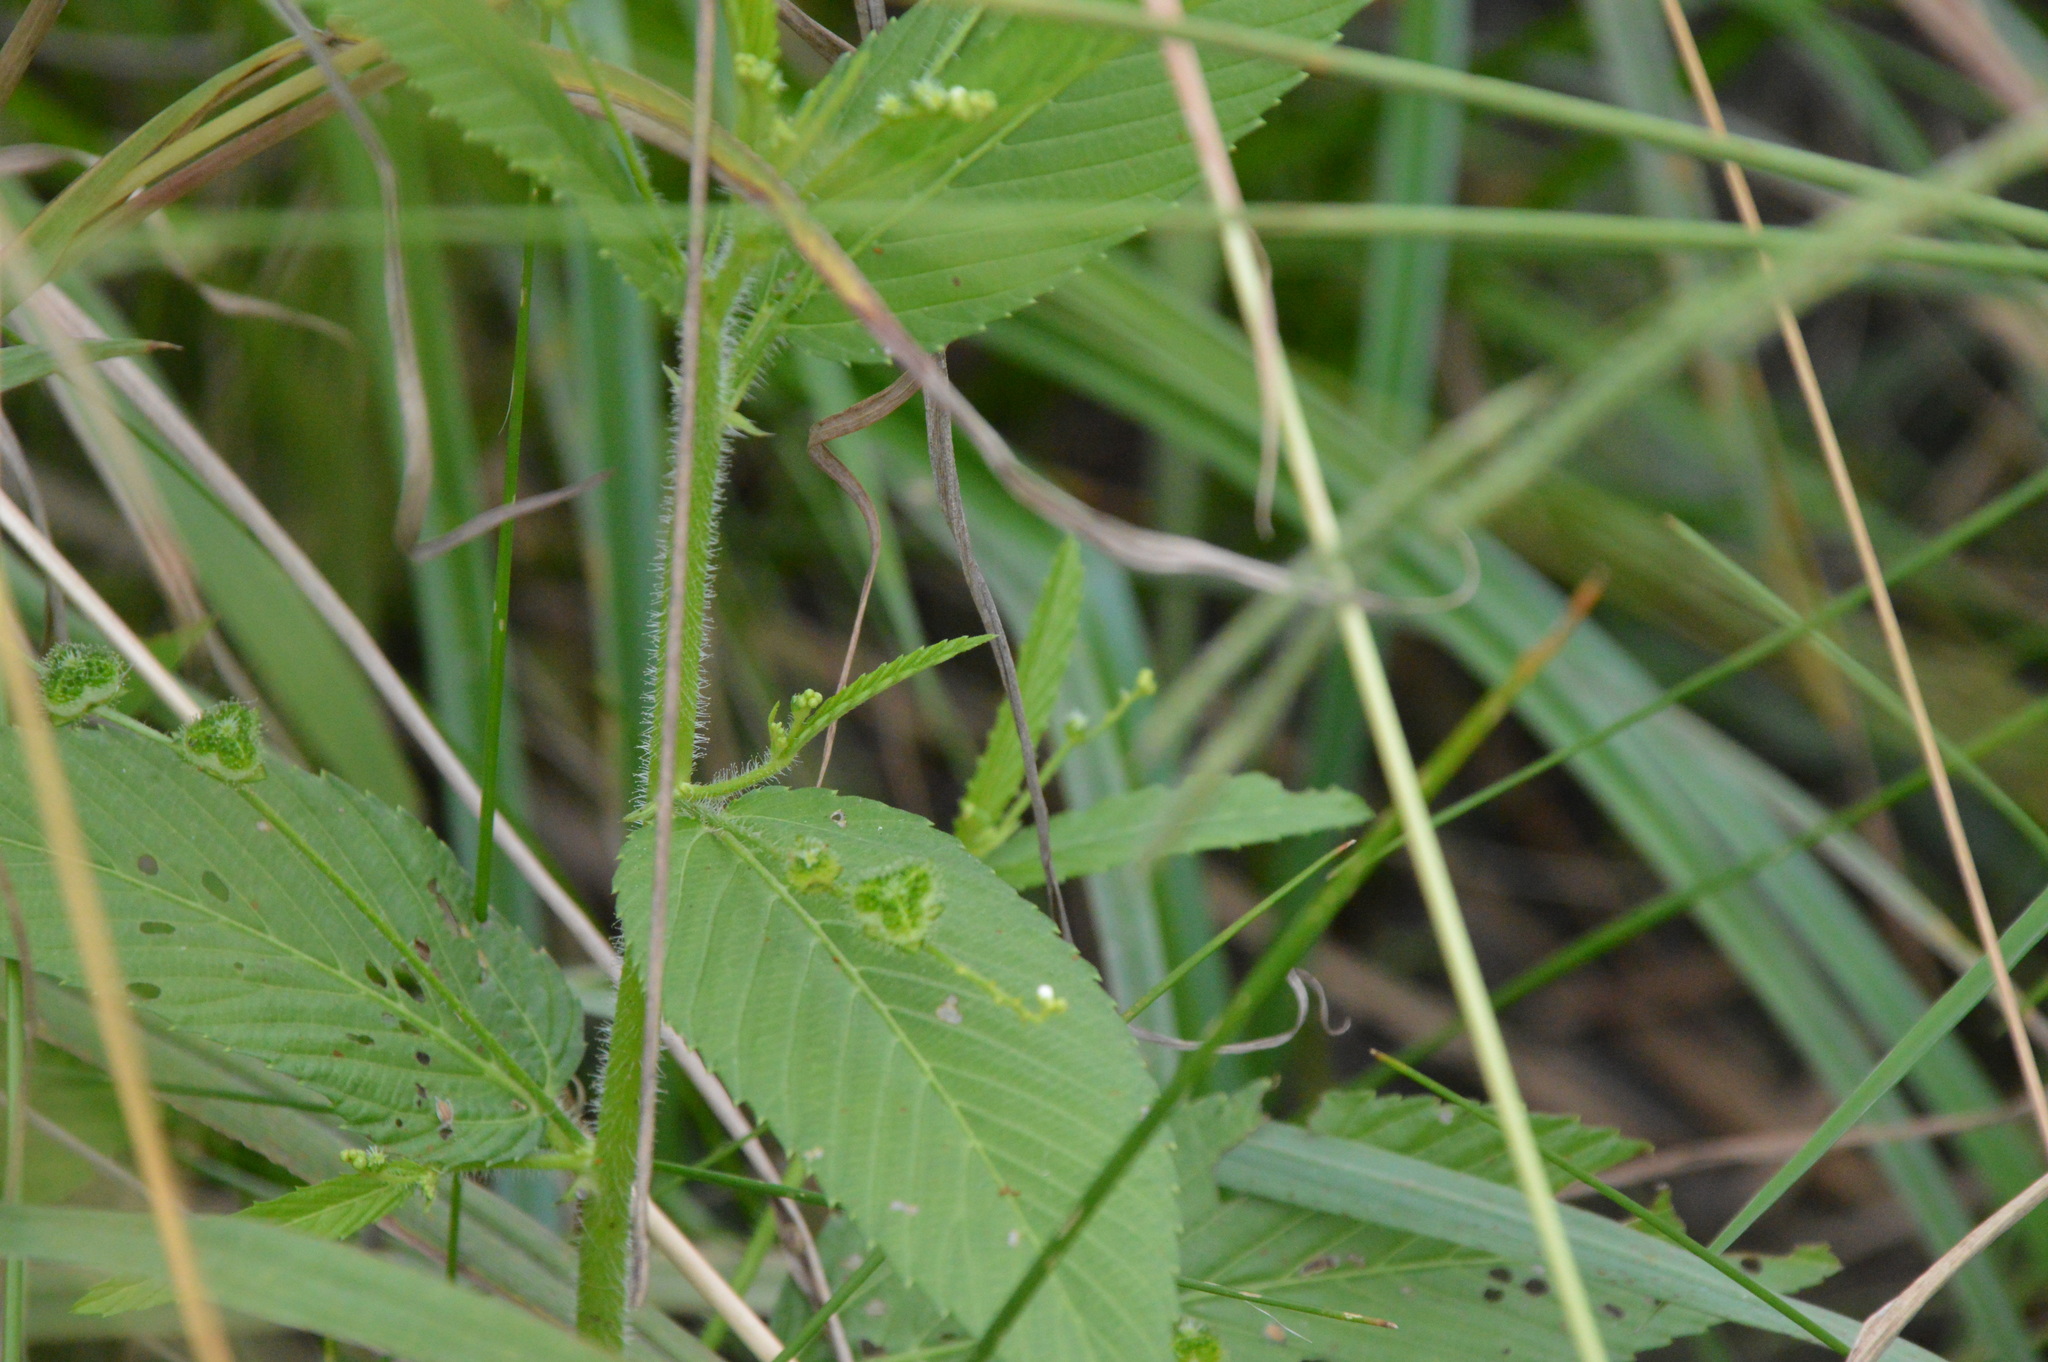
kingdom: Plantae
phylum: Tracheophyta
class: Magnoliopsida
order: Malpighiales
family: Euphorbiaceae
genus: Caperonia
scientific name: Caperonia palustris
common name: Sacatrapo
